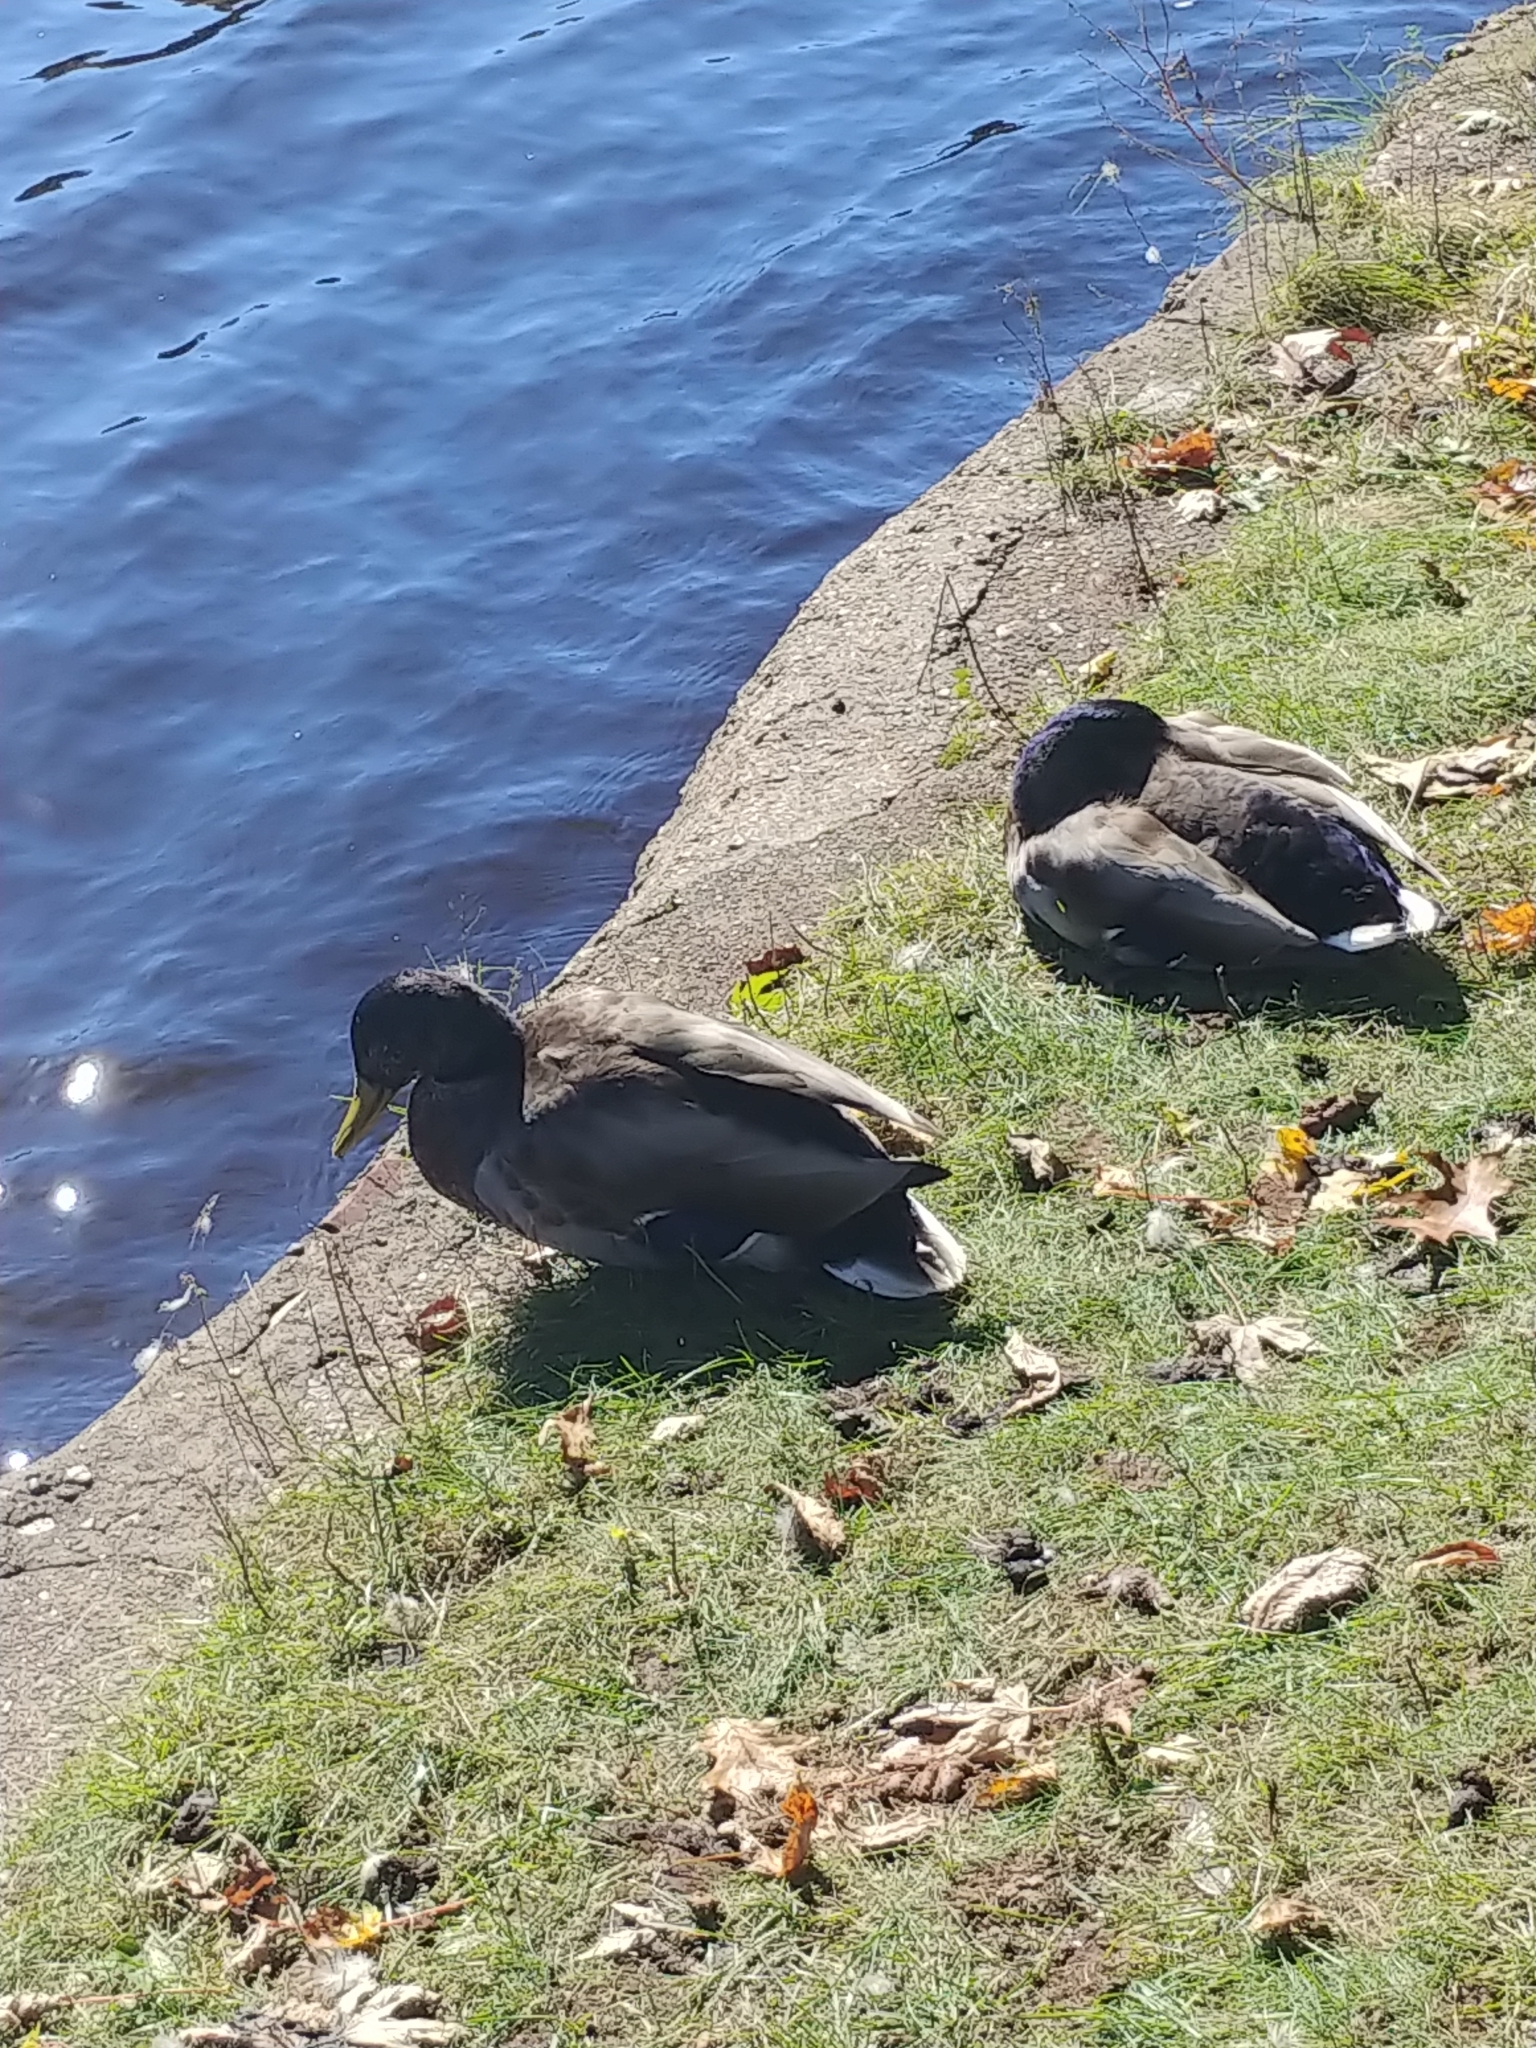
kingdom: Animalia
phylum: Chordata
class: Aves
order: Anseriformes
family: Anatidae
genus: Anas
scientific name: Anas platyrhynchos
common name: Mallard
